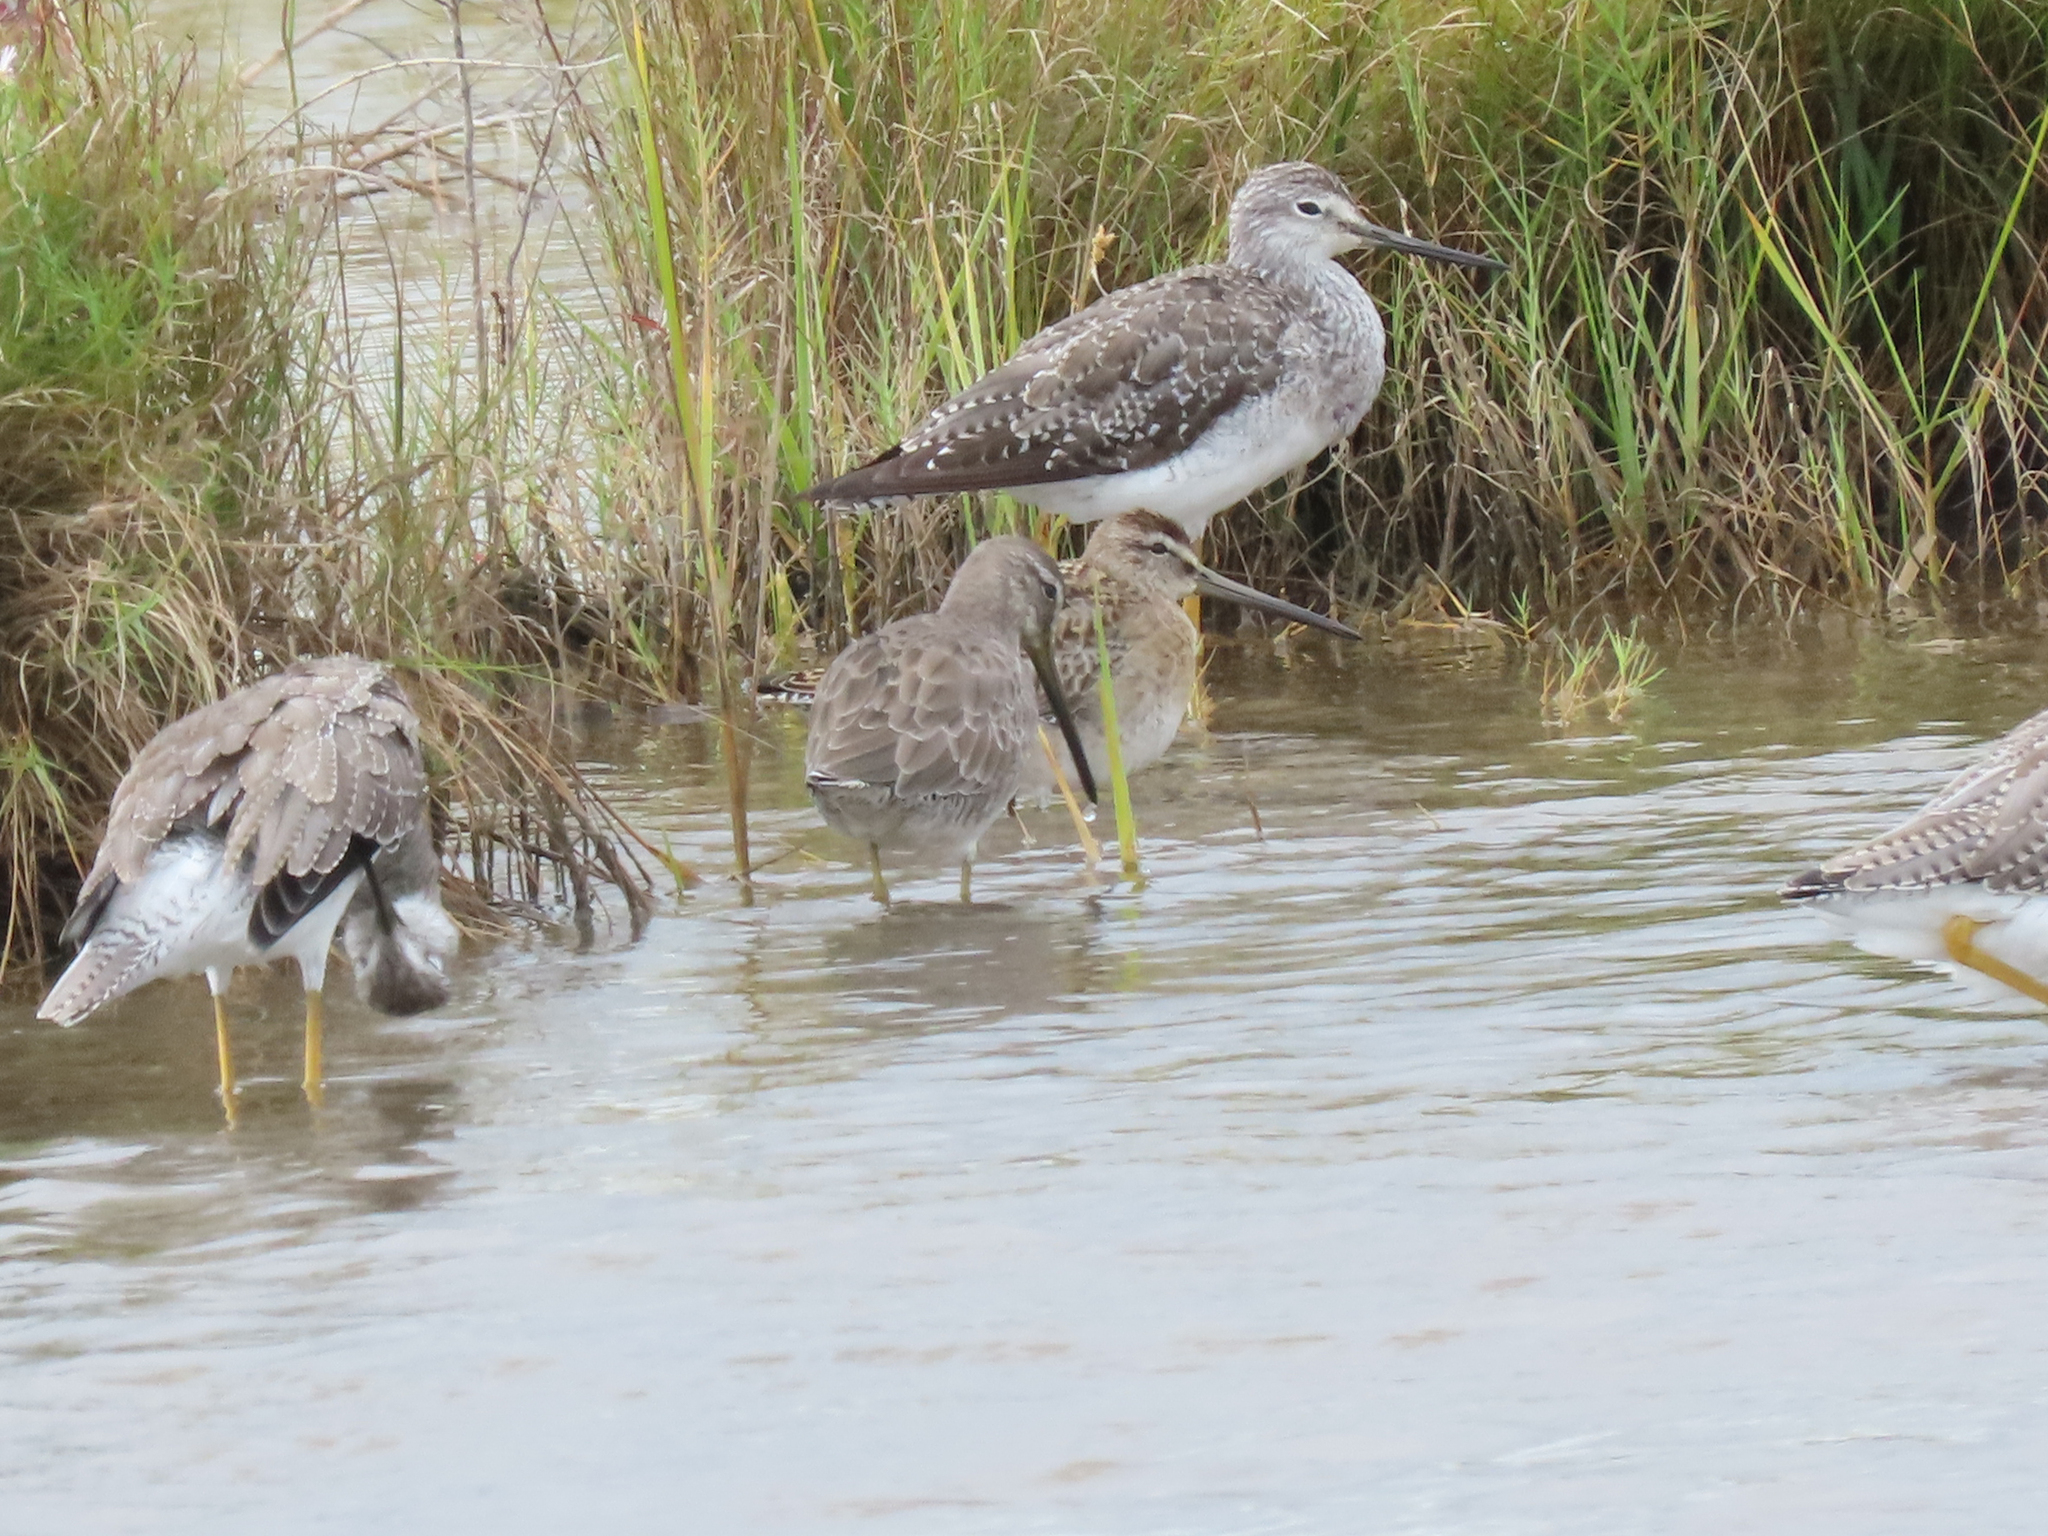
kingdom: Animalia
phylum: Chordata
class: Aves
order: Charadriiformes
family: Scolopacidae
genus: Limnodromus
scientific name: Limnodromus griseus
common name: Short-billed dowitcher
